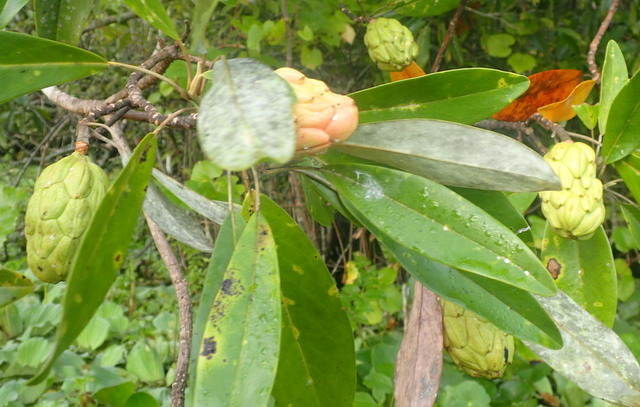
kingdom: Plantae
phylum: Tracheophyta
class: Magnoliopsida
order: Magnoliales
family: Magnoliaceae
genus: Magnolia
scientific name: Magnolia virginiana
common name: Swamp bay
